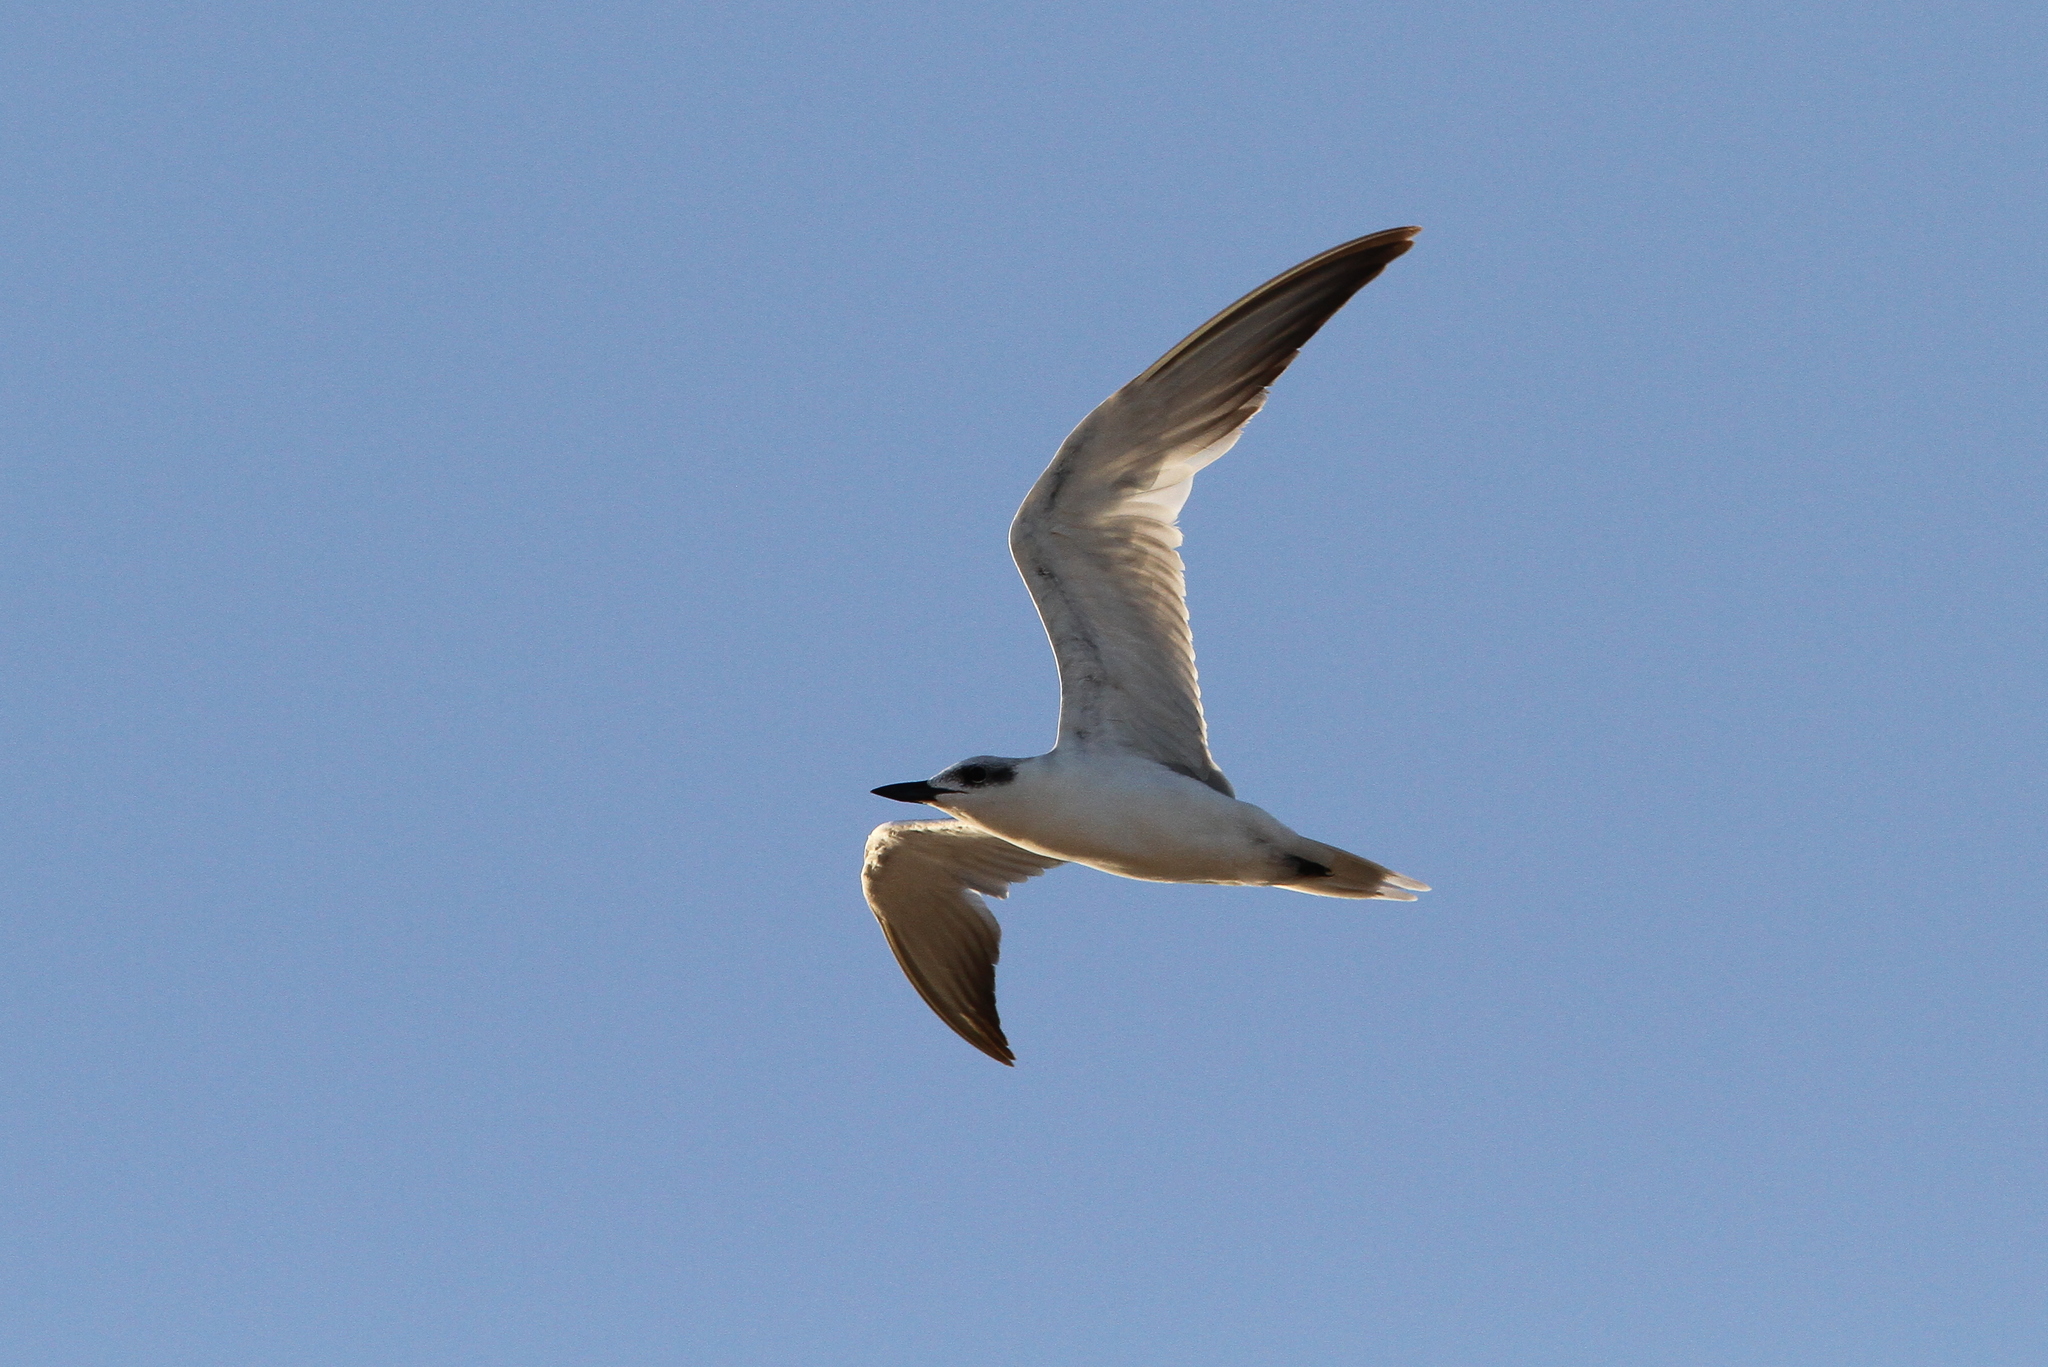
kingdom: Animalia
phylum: Chordata
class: Aves
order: Charadriiformes
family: Laridae
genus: Gelochelidon
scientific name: Gelochelidon nilotica
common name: Gull-billed tern
